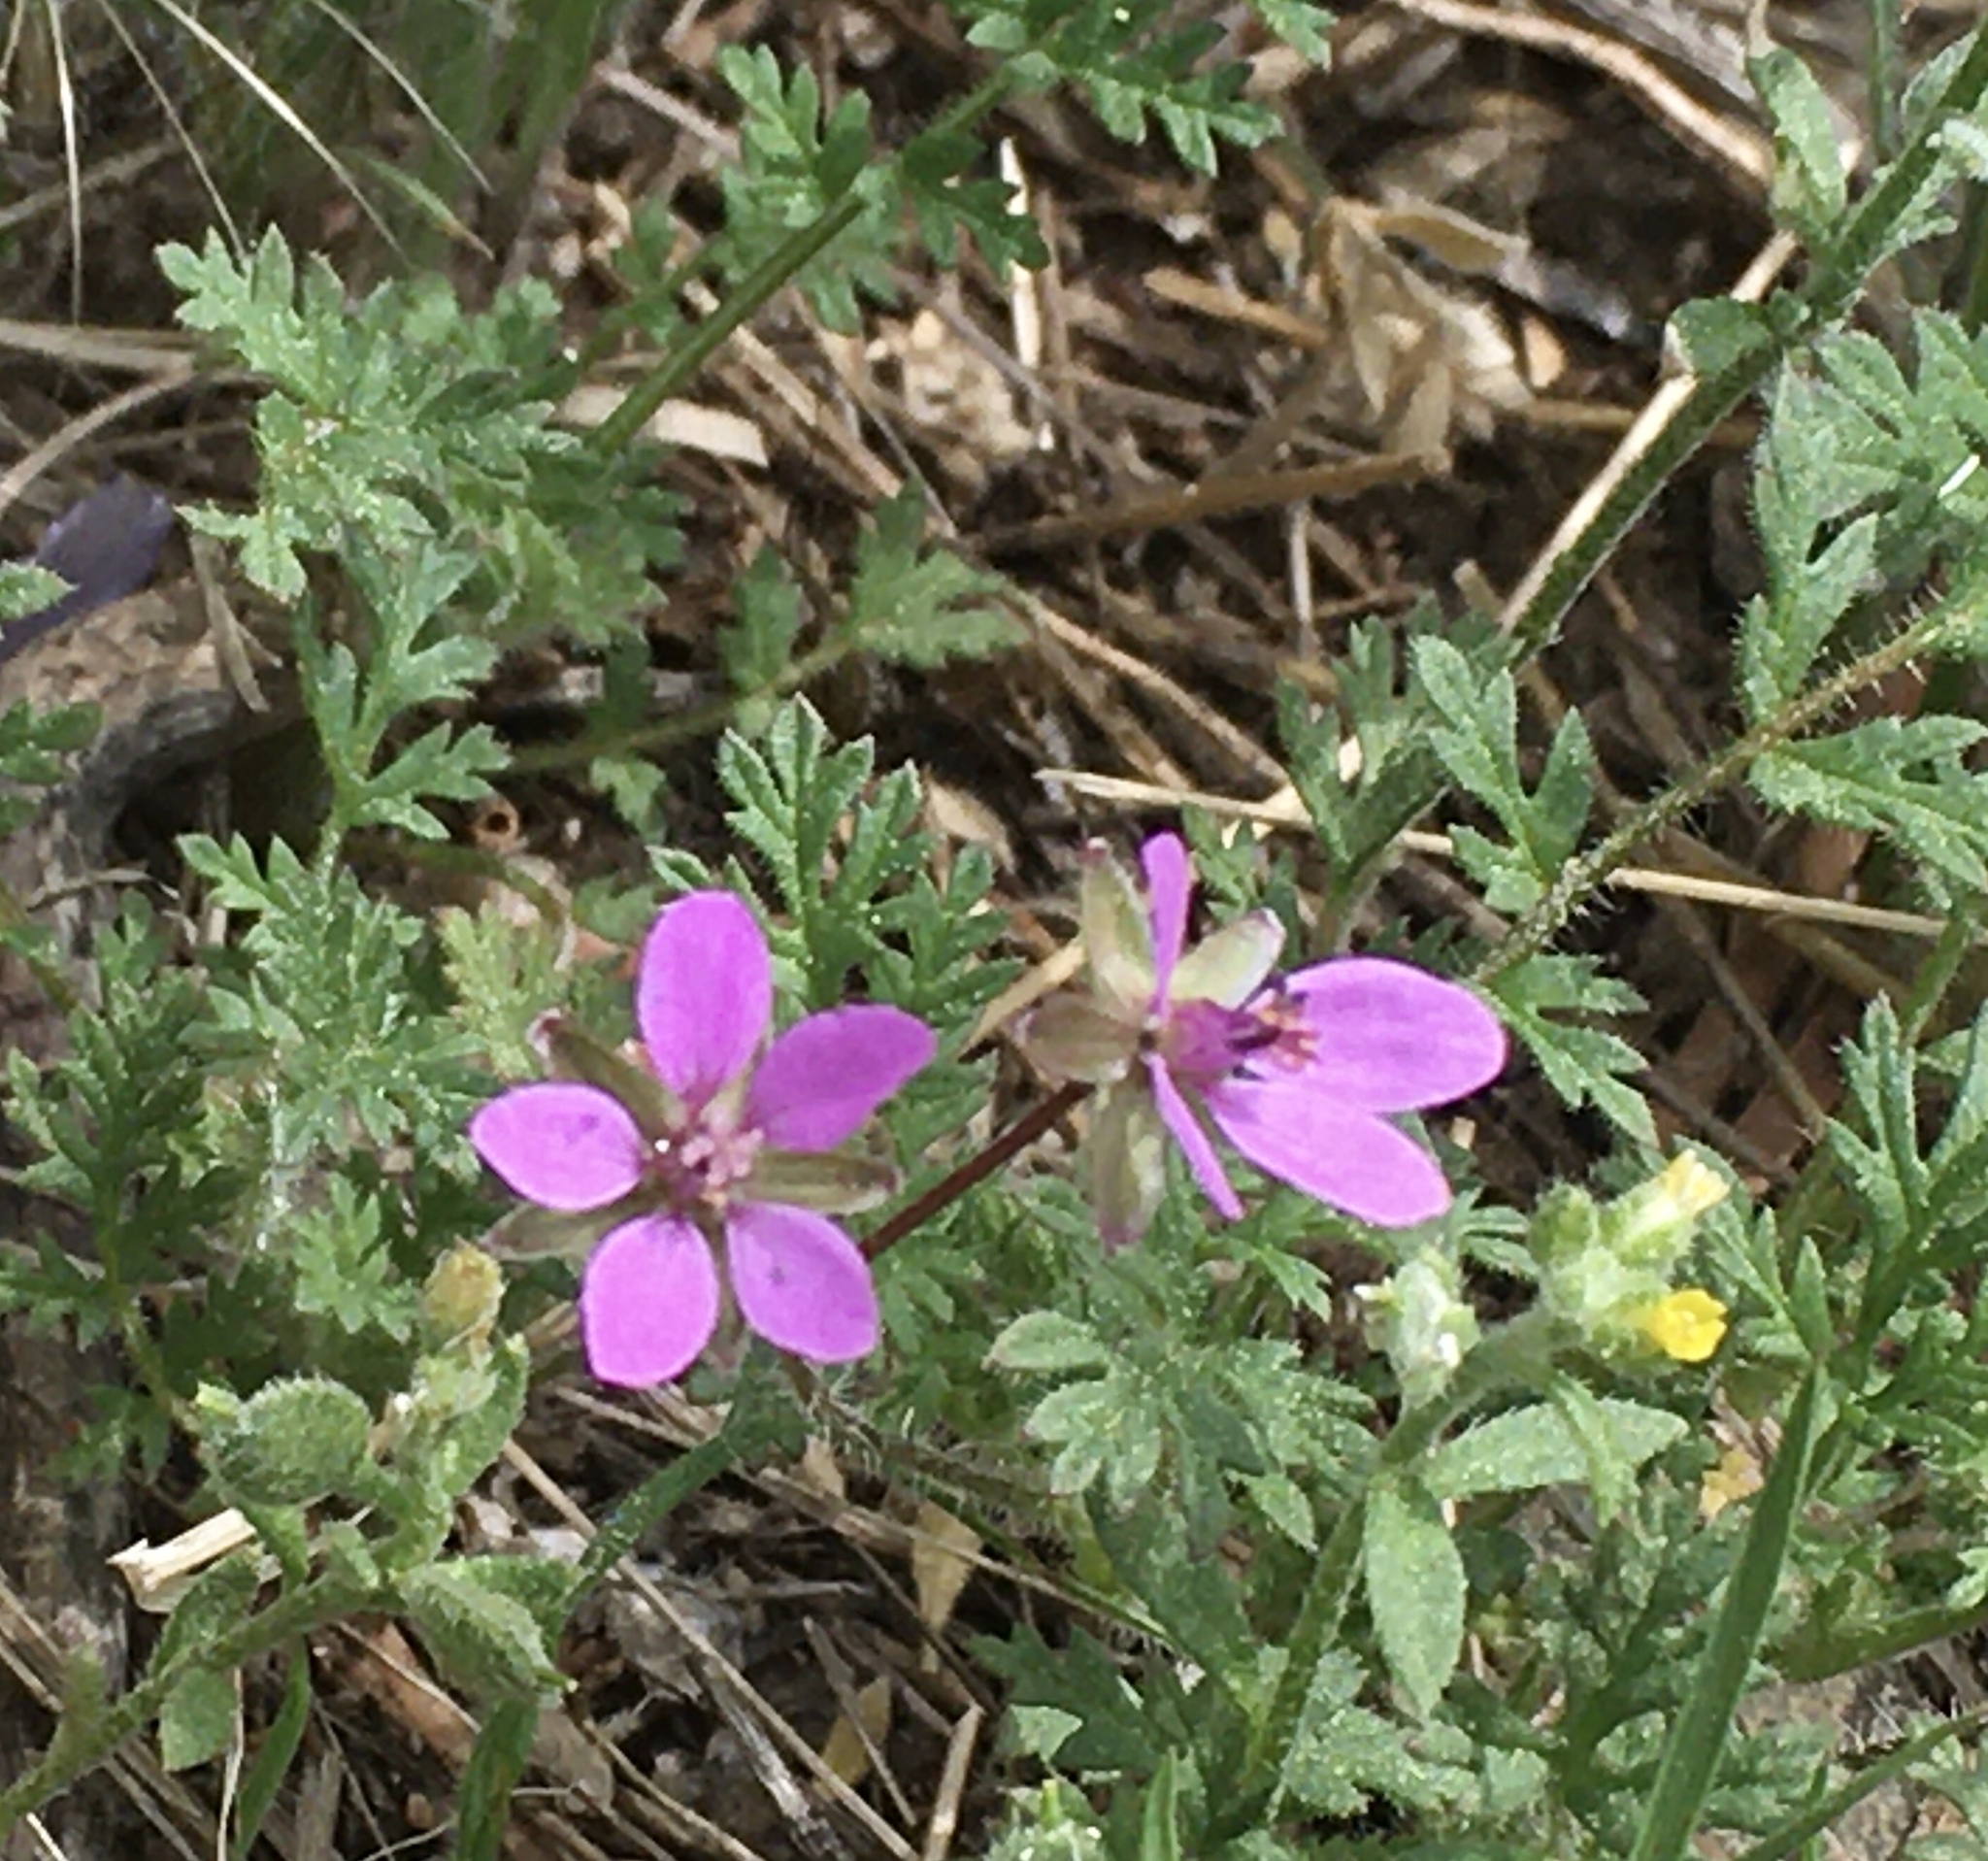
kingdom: Plantae
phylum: Tracheophyta
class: Magnoliopsida
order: Geraniales
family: Geraniaceae
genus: Erodium
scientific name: Erodium cicutarium
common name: Common stork's-bill
